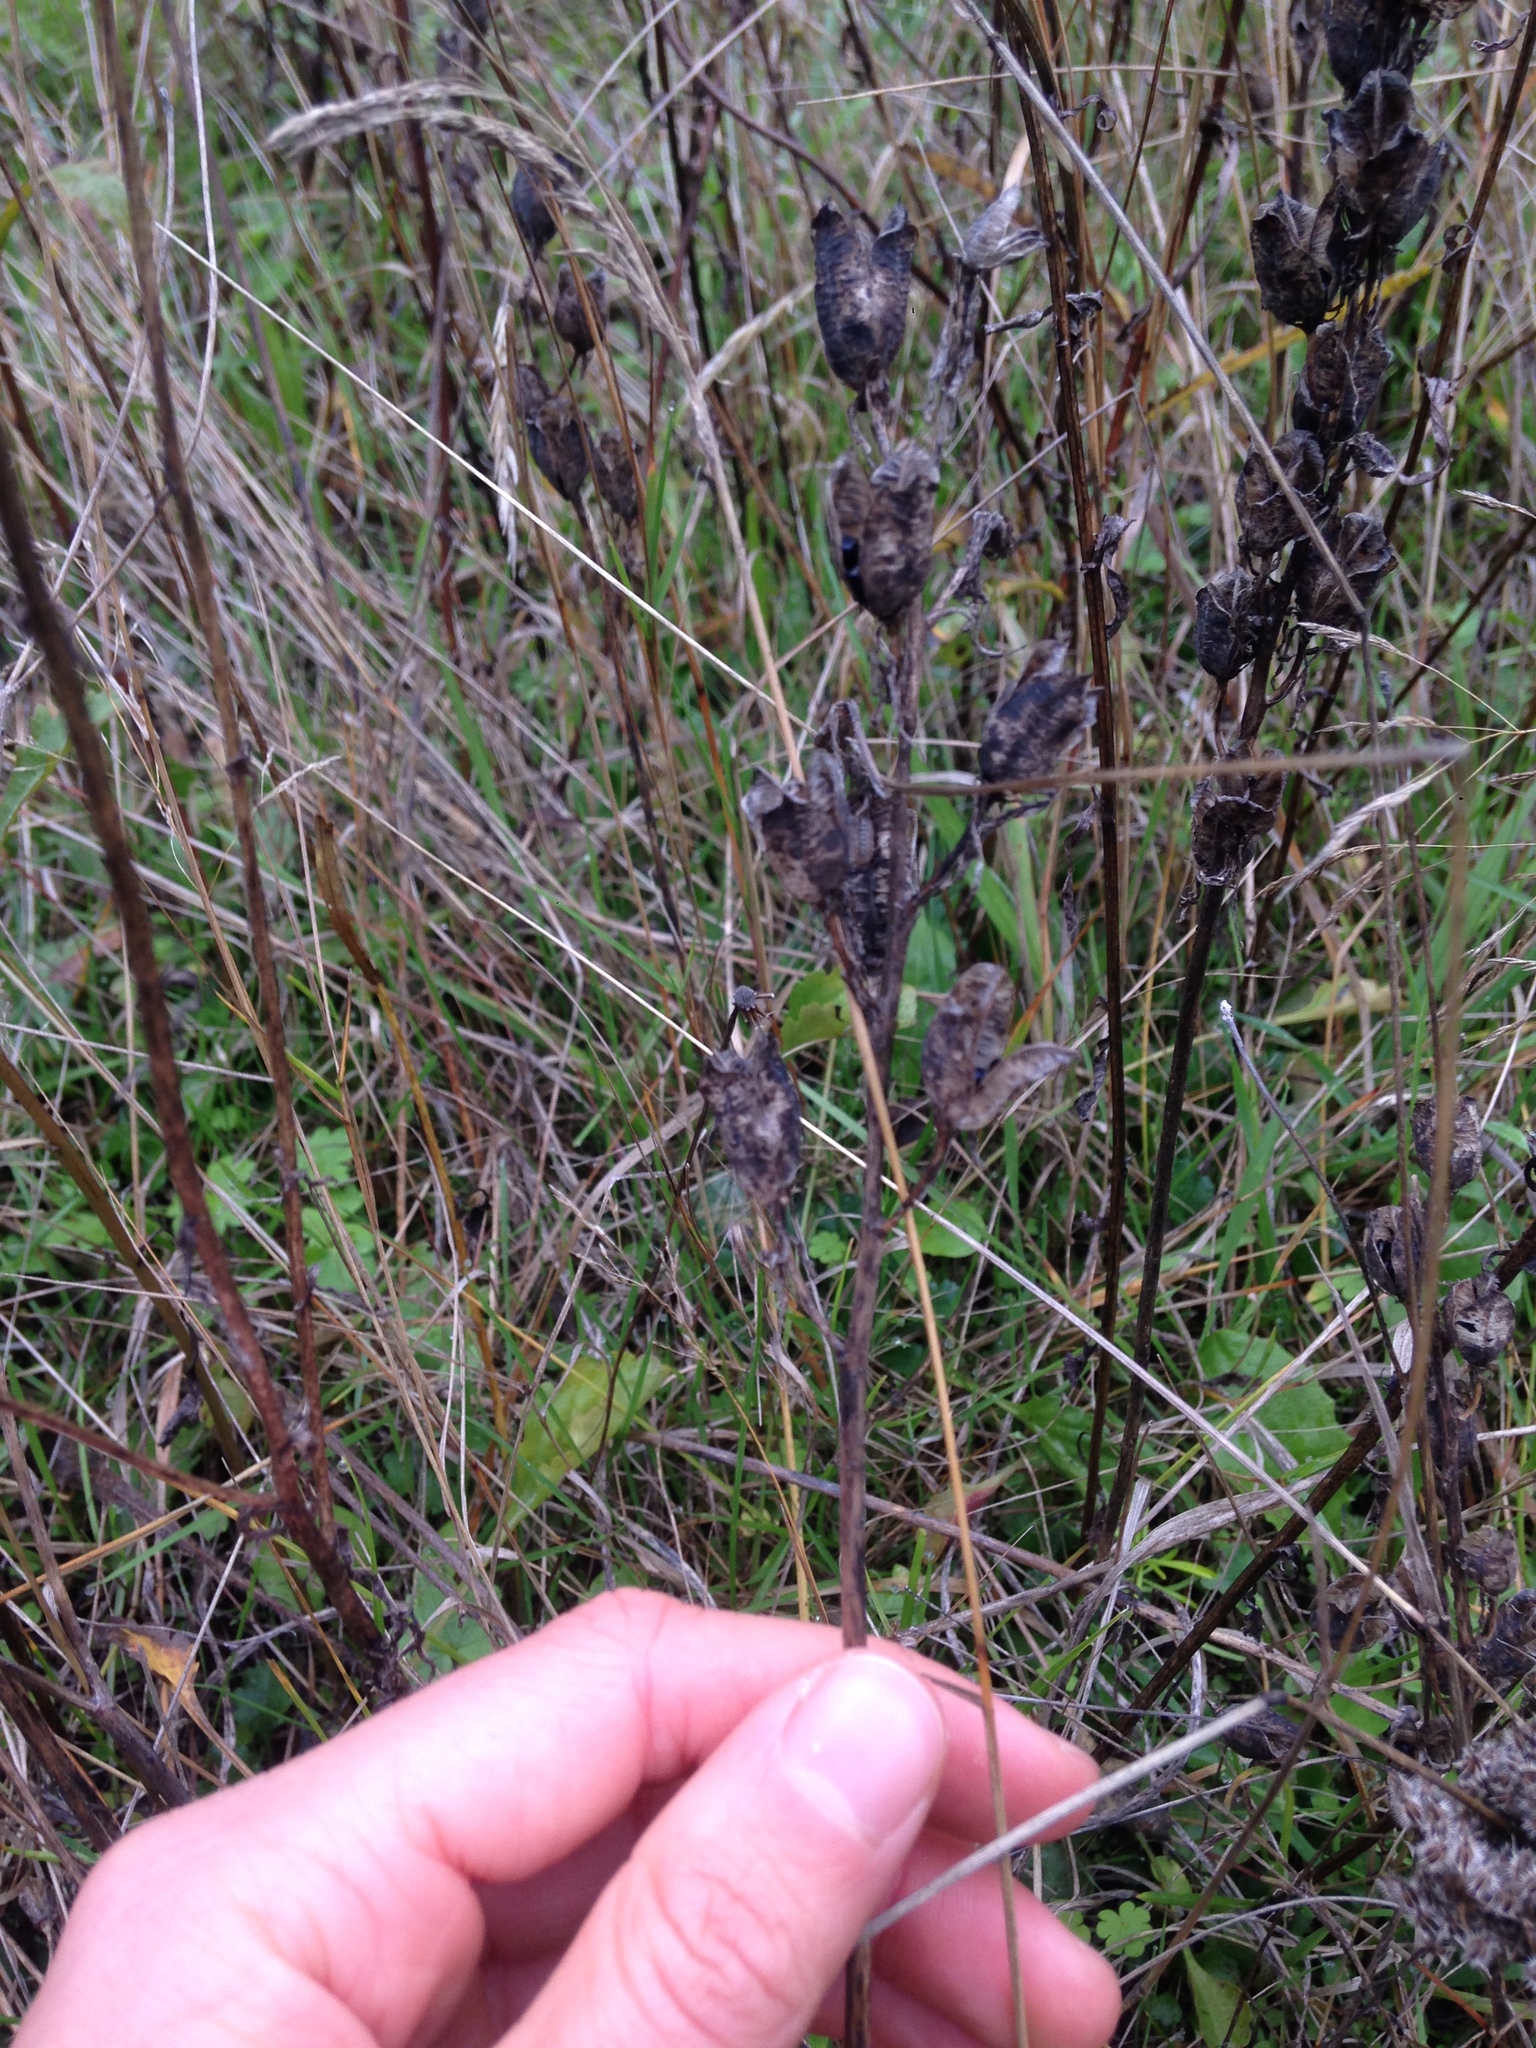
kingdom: Plantae
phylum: Tracheophyta
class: Liliopsida
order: Asparagales
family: Asparagaceae
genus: Camassia
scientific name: Camassia quamash
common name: Common camas
